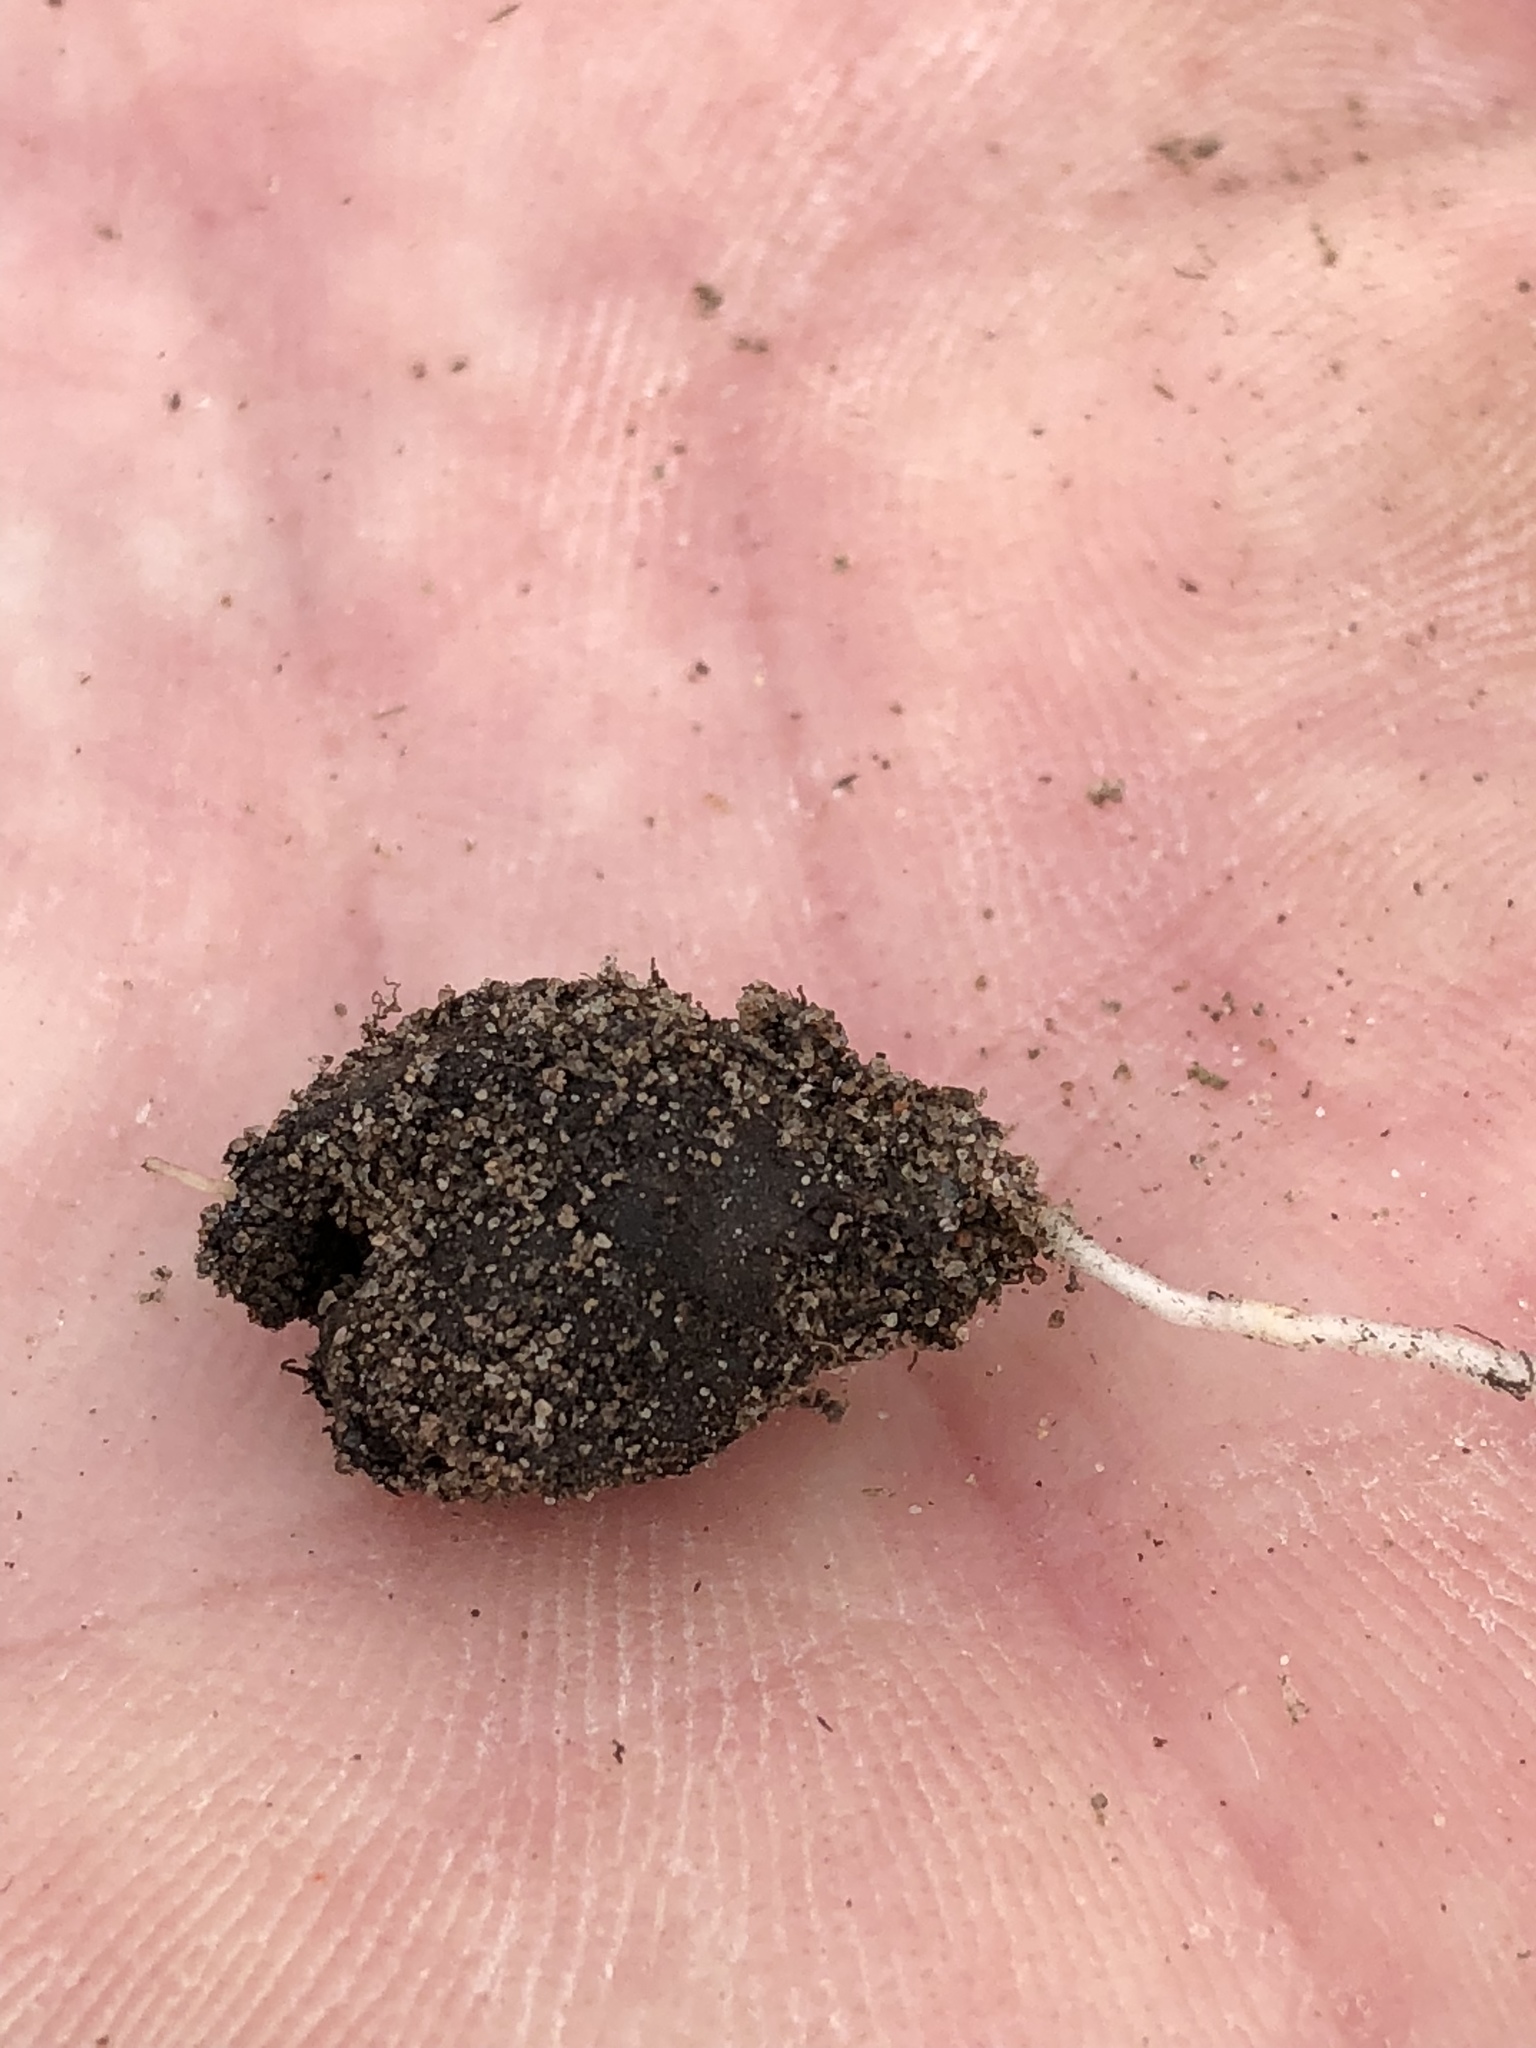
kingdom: Plantae
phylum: Tracheophyta
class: Magnoliopsida
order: Oxalidales
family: Oxalidaceae
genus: Oxalis
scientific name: Oxalis luteola
